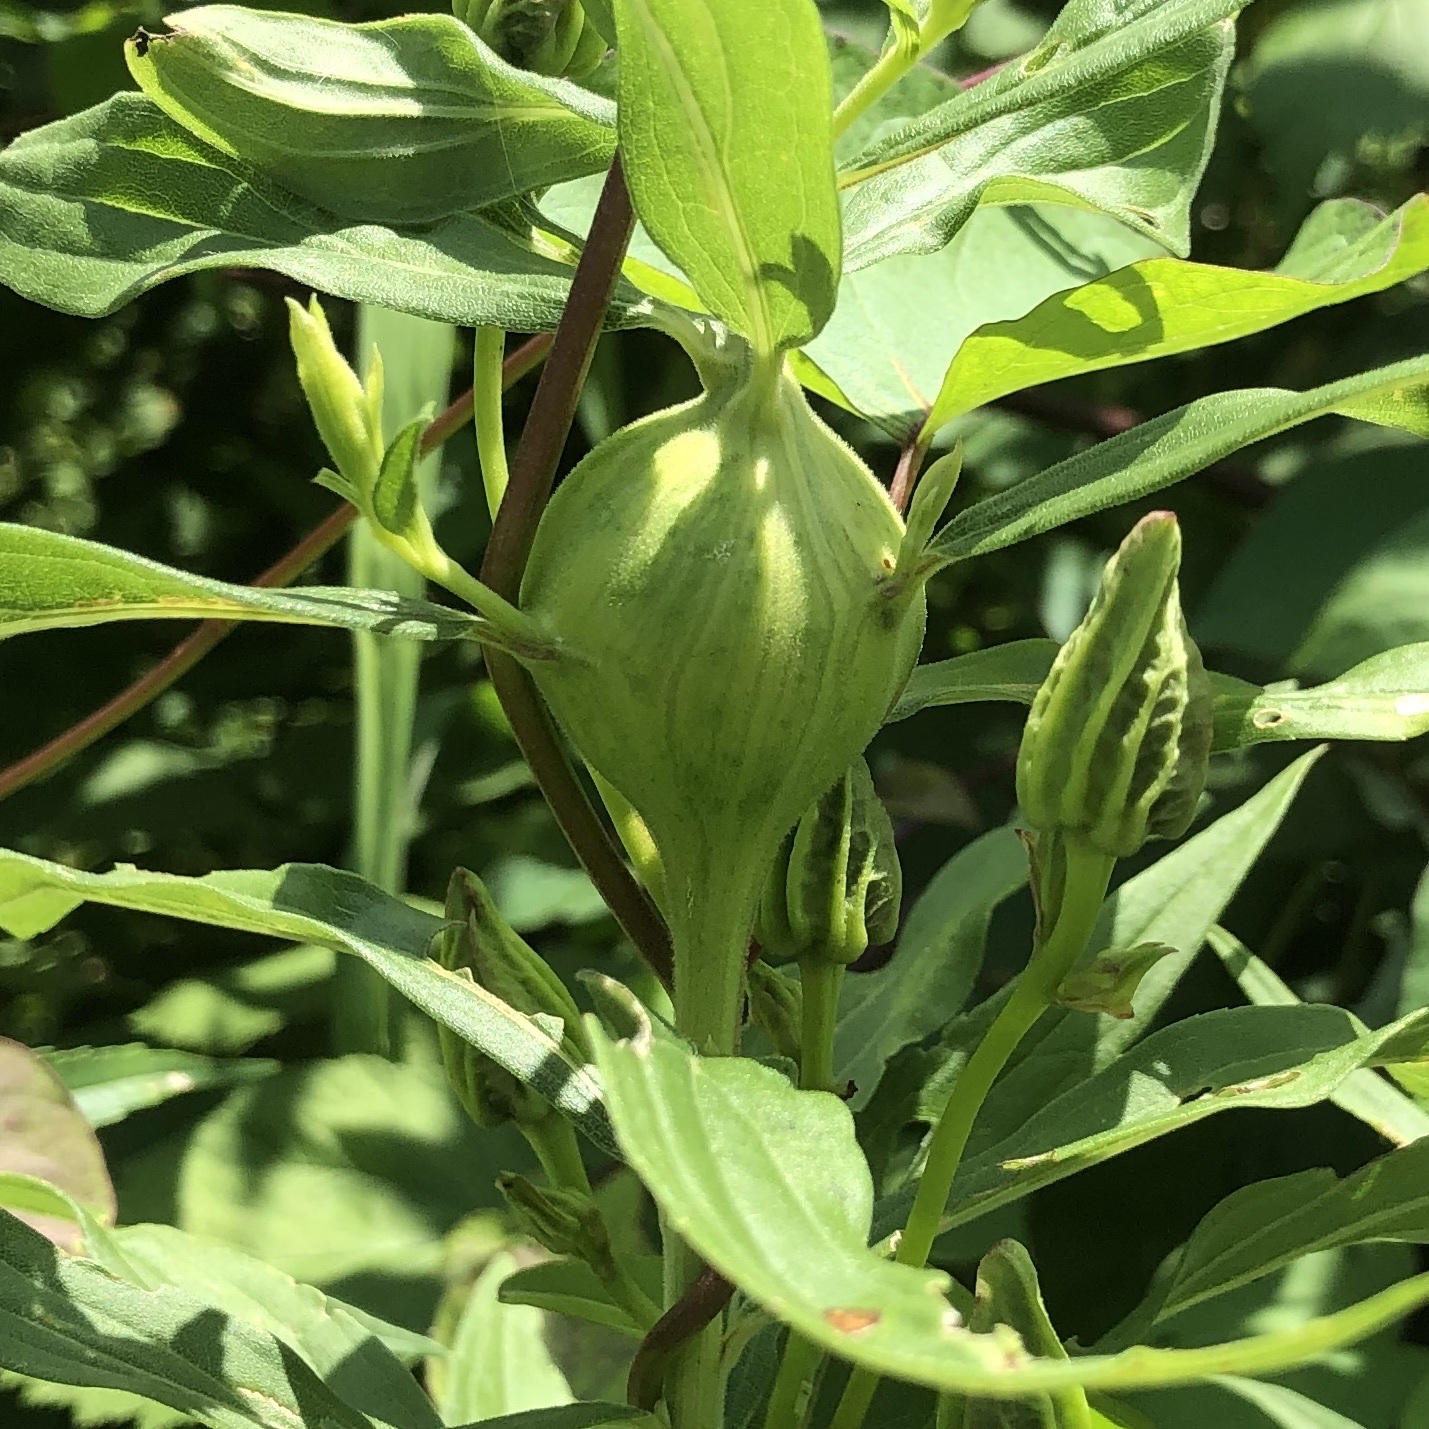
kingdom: Animalia
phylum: Arthropoda
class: Insecta
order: Diptera
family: Tephritidae
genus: Eurosta
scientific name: Eurosta solidaginis
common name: Goldenrod gall fly
